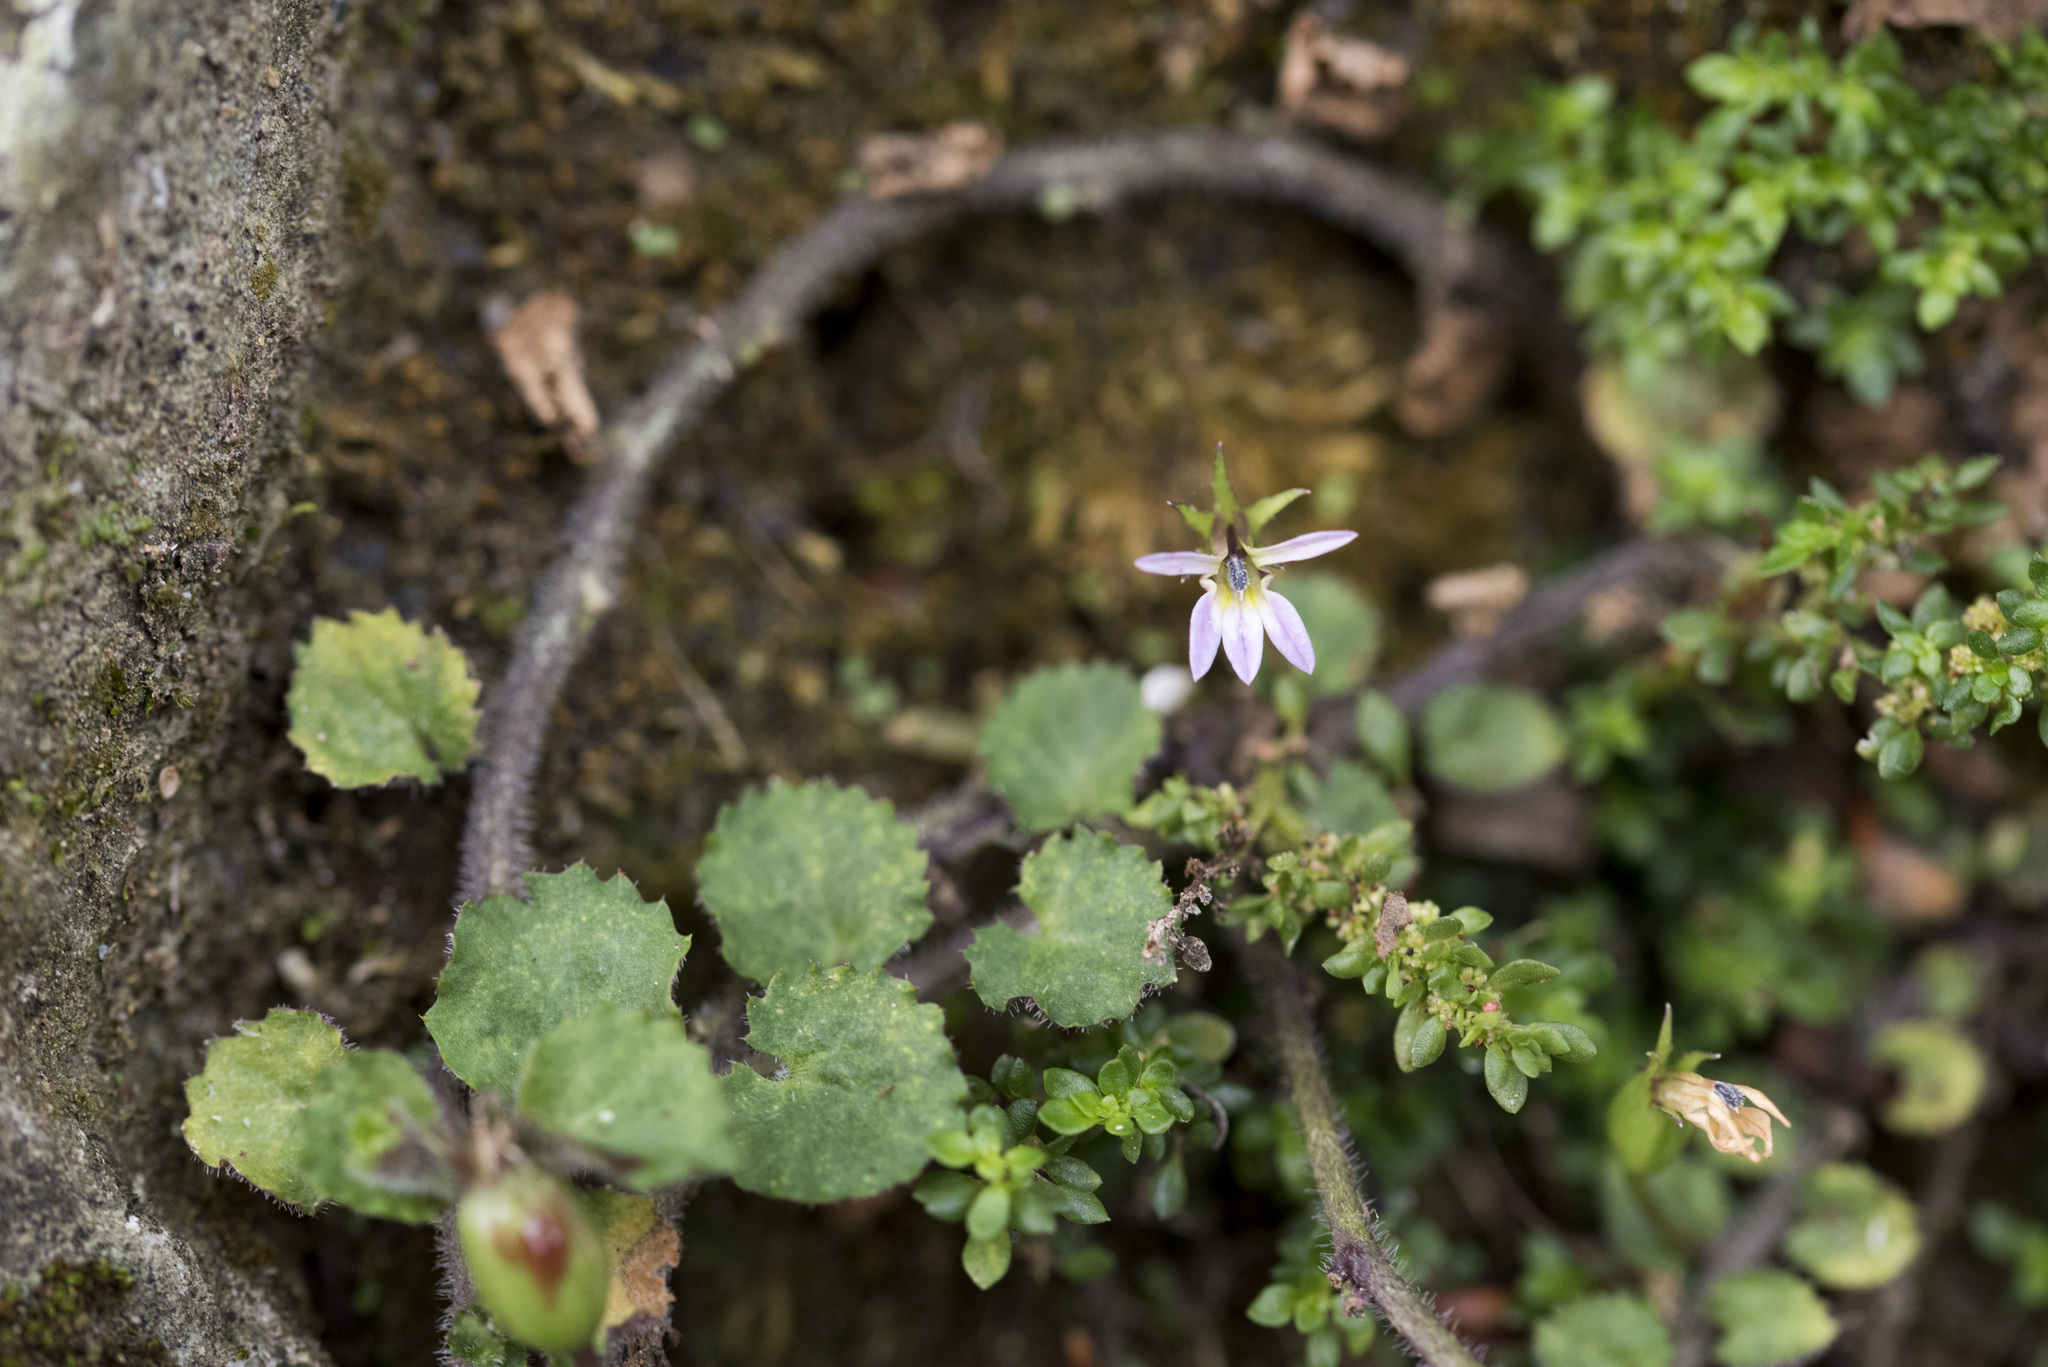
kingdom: Plantae
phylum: Tracheophyta
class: Magnoliopsida
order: Asterales
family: Campanulaceae
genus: Lobelia
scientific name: Lobelia nummularia
